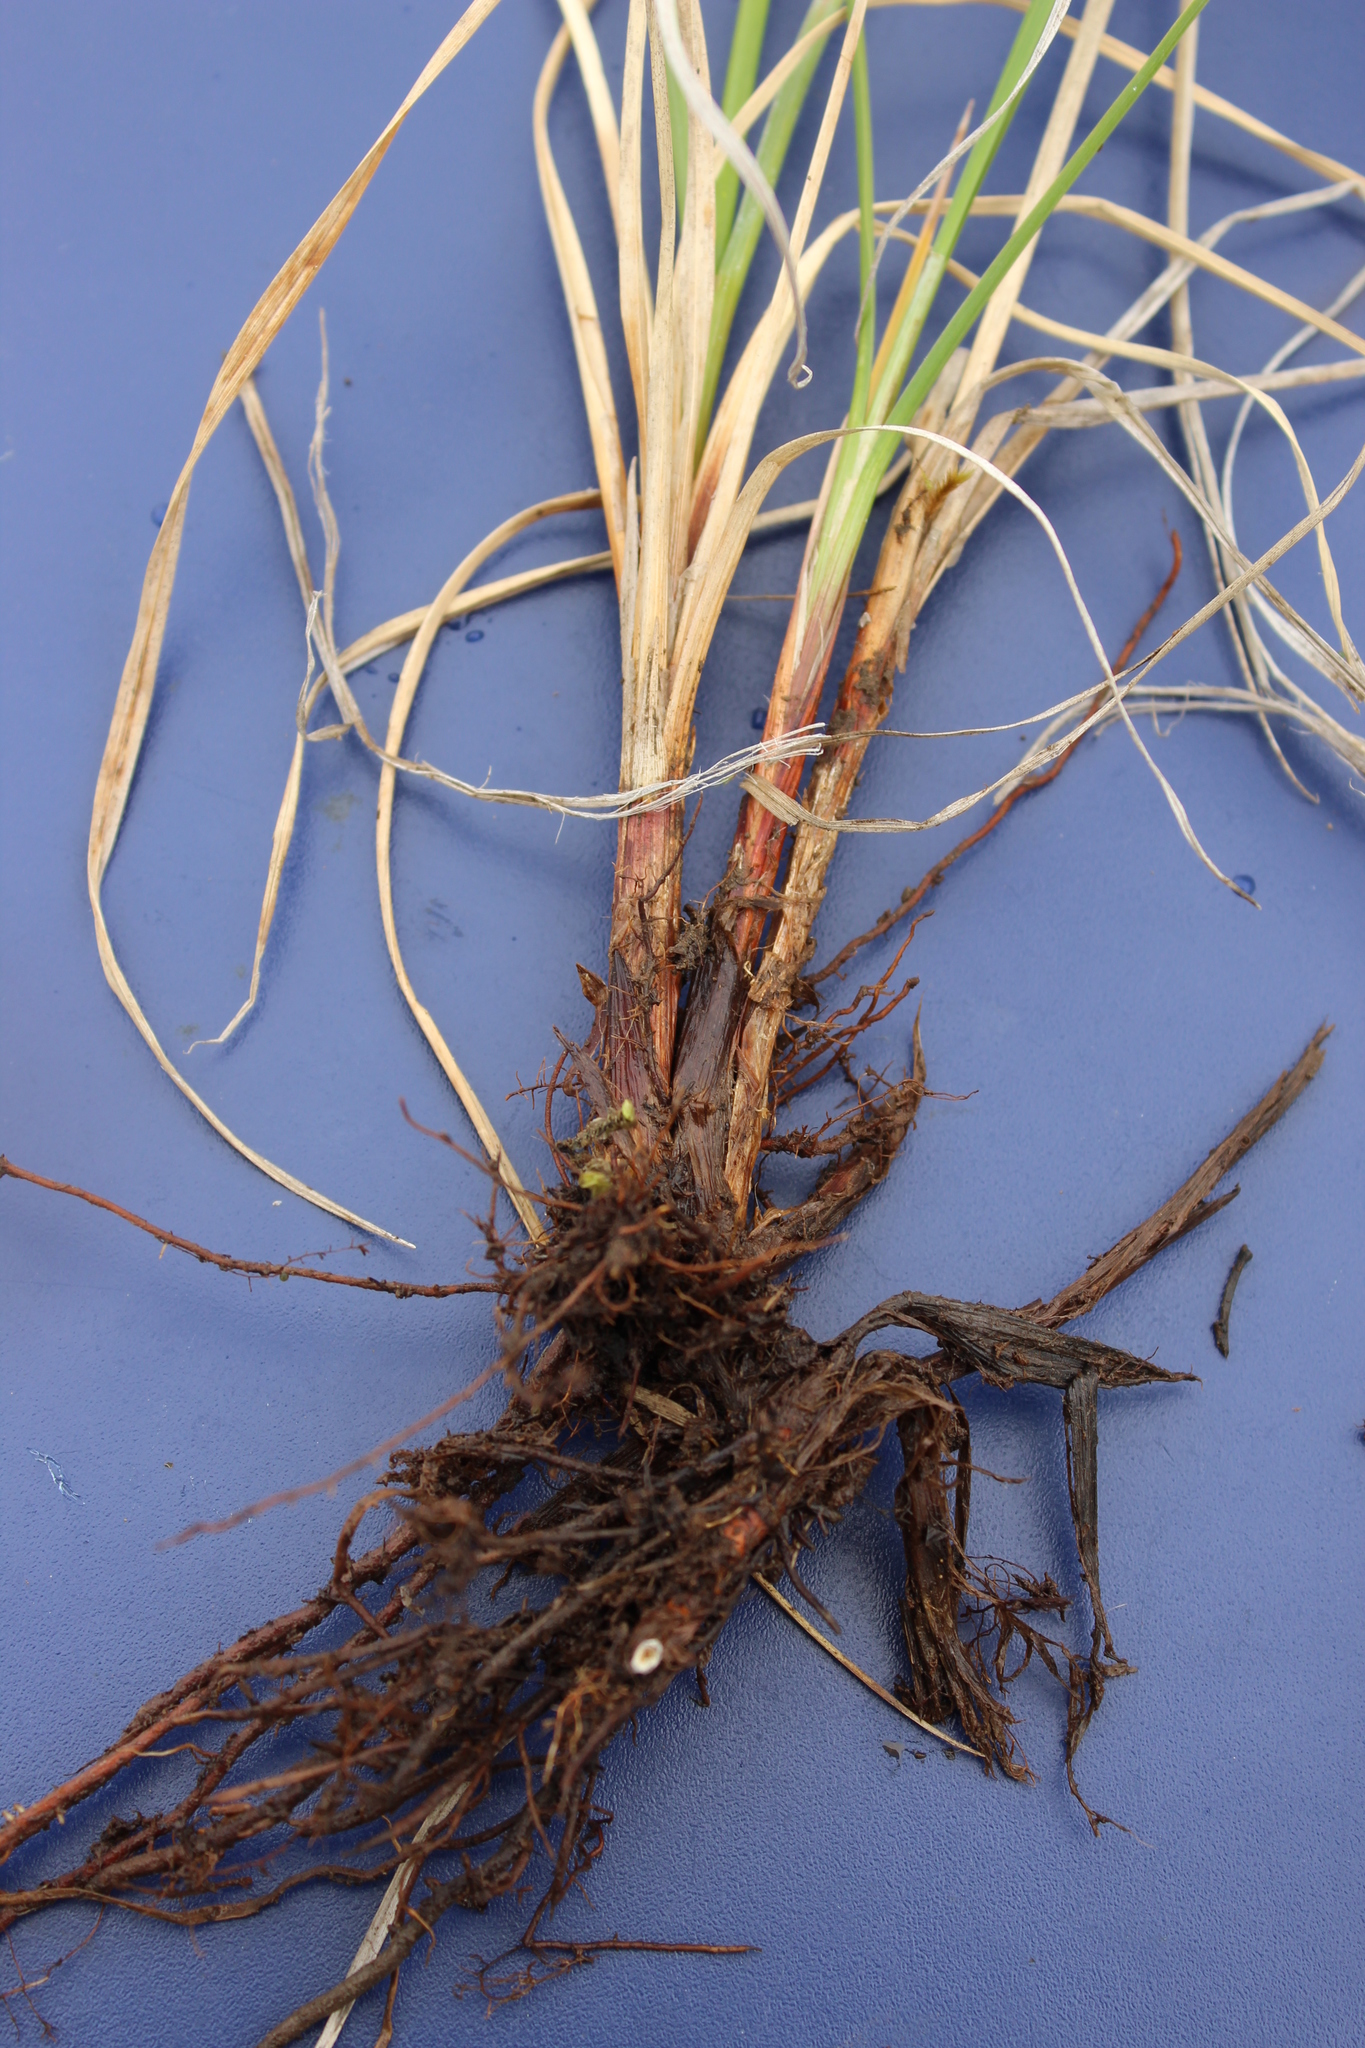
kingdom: Plantae
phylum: Tracheophyta
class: Liliopsida
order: Poales
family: Cyperaceae
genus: Carex
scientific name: Carex aquatilis
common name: Water sedge
